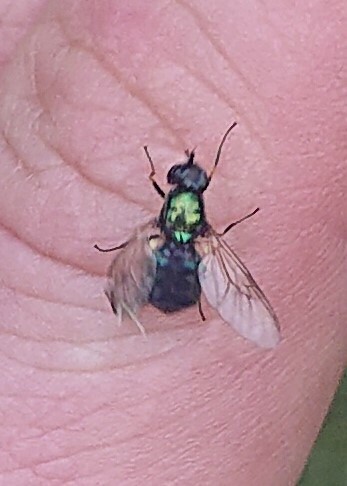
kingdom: Animalia
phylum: Arthropoda
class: Insecta
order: Diptera
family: Stratiomyidae
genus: Chloromyia
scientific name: Chloromyia formosa
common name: Soldier fly
